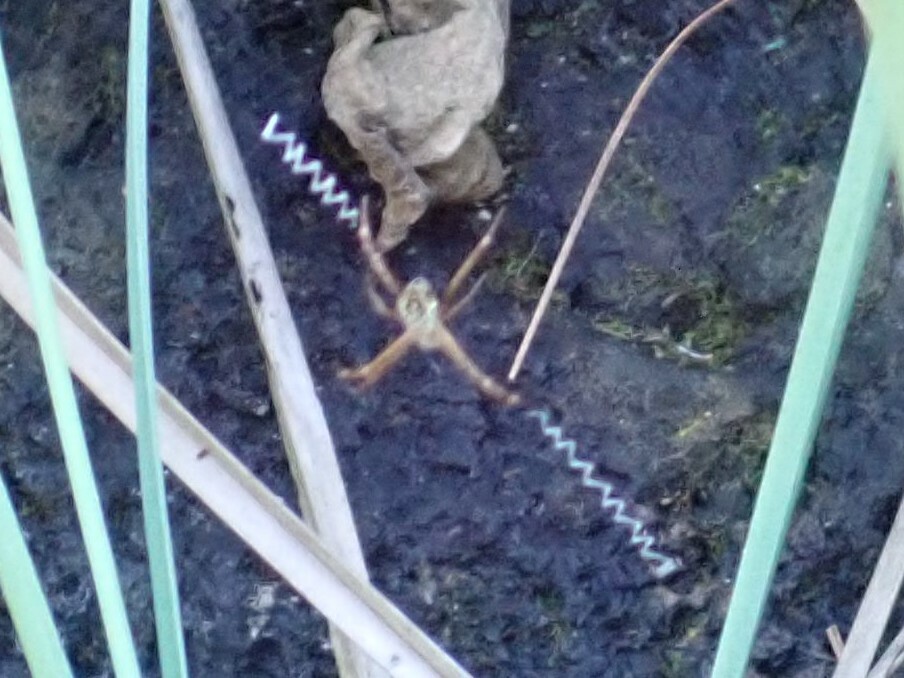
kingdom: Animalia
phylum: Arthropoda
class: Arachnida
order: Araneae
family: Araneidae
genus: Argiope
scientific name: Argiope appensa
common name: Garden spider
